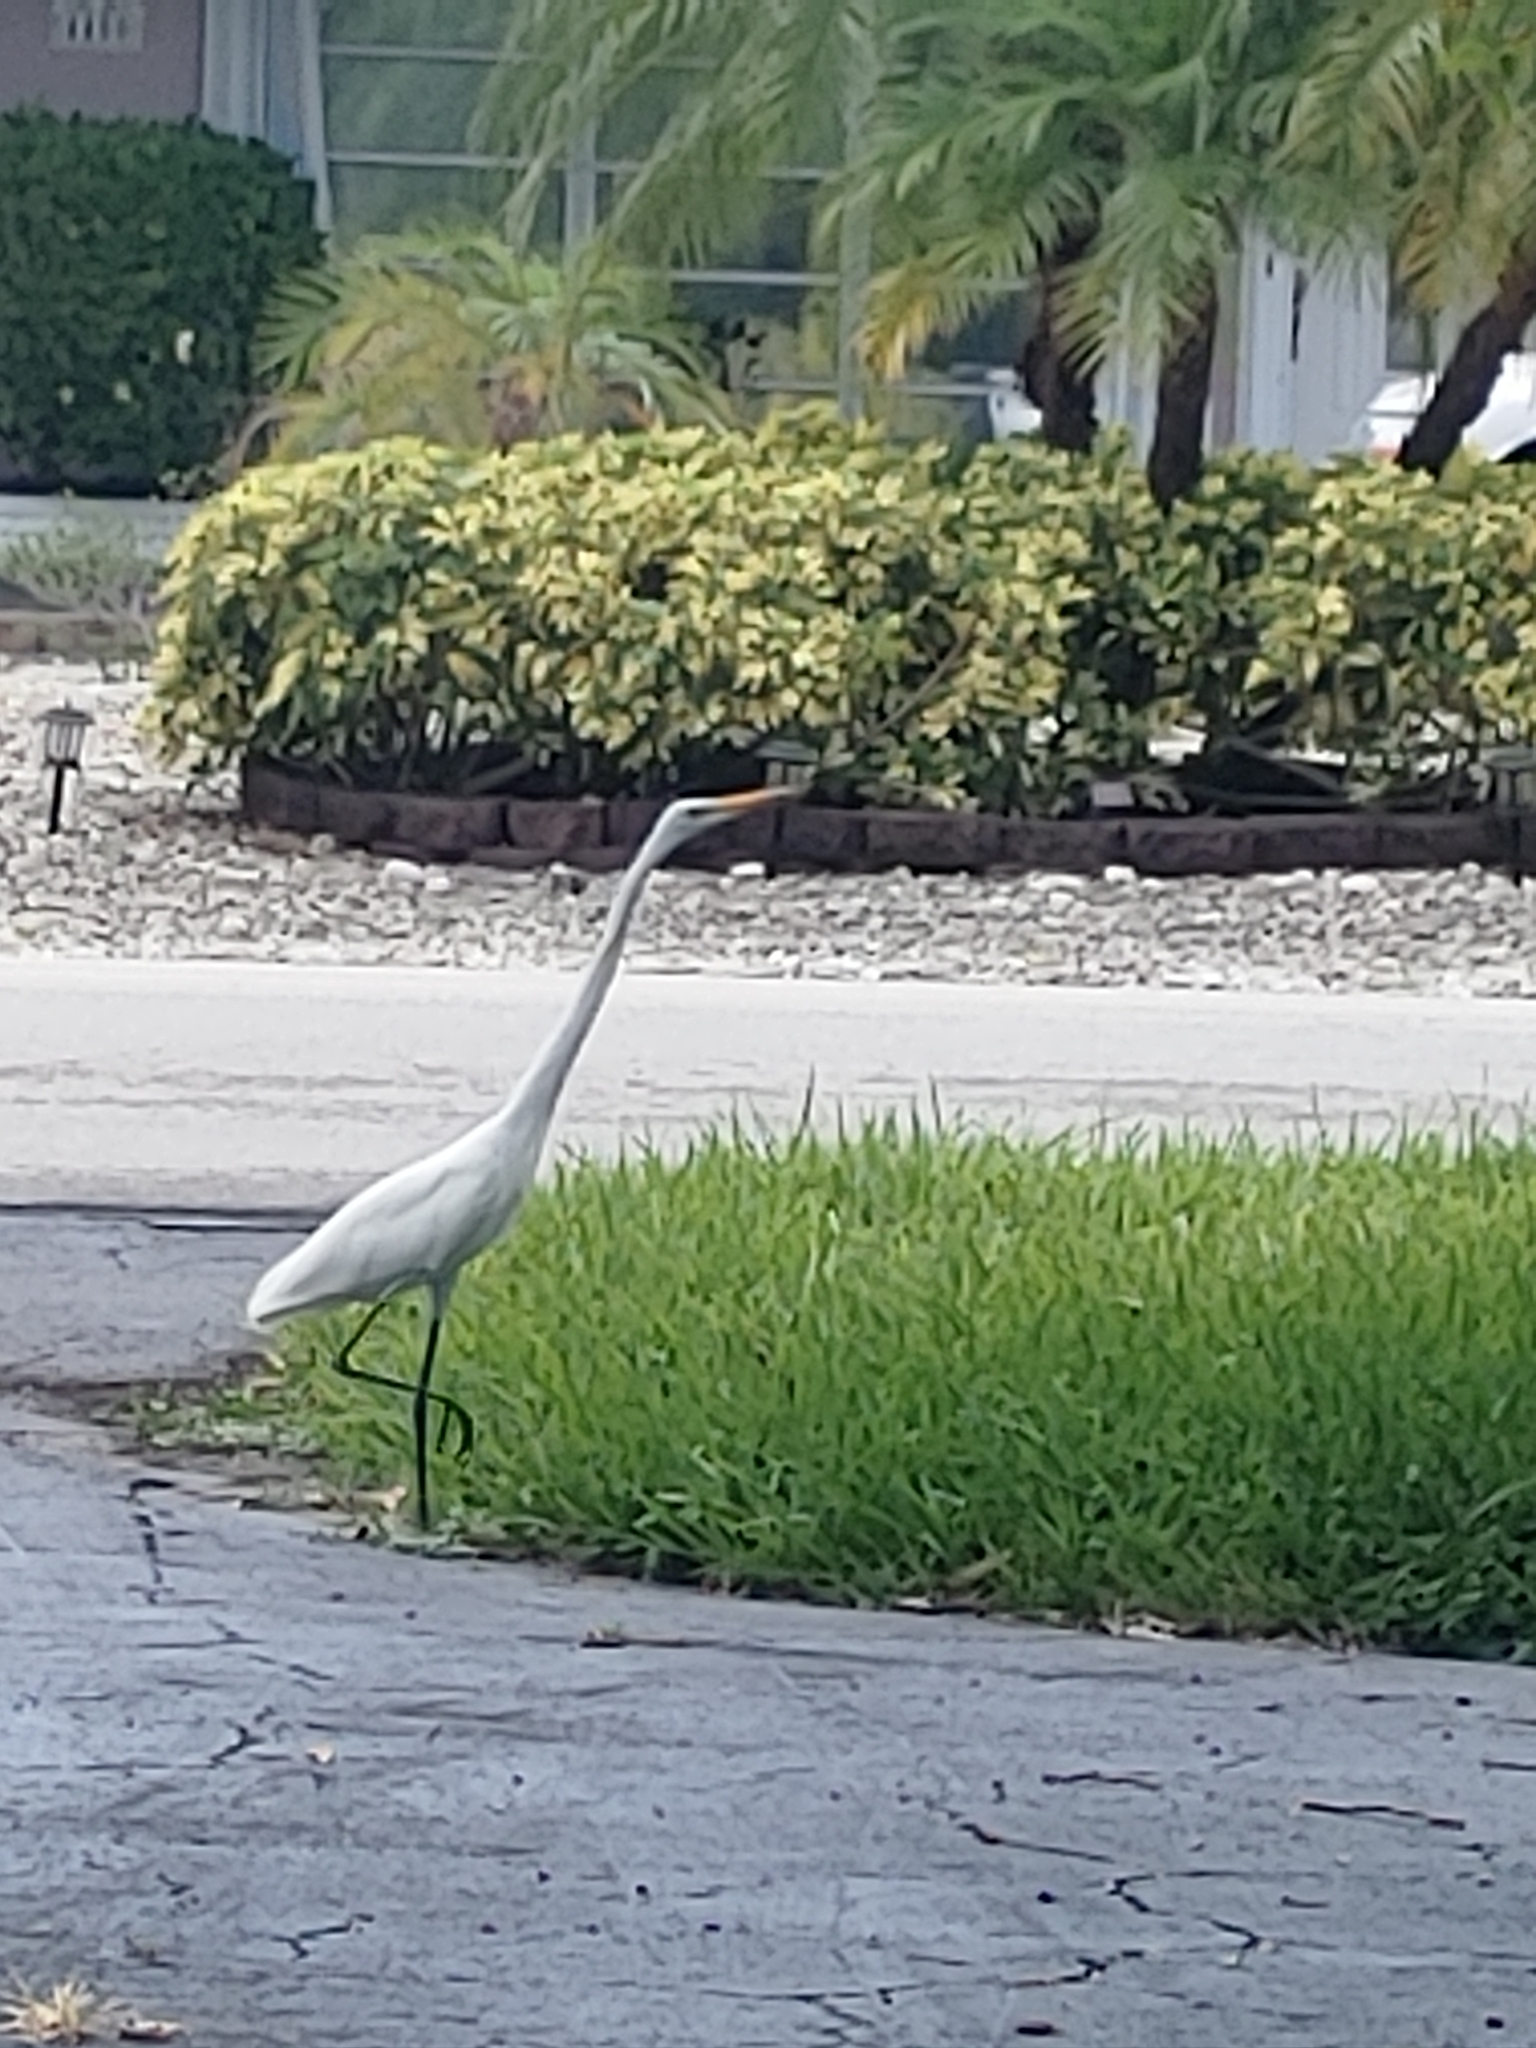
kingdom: Animalia
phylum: Chordata
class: Aves
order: Pelecaniformes
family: Ardeidae
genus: Ardea
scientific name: Ardea alba
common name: Great egret
